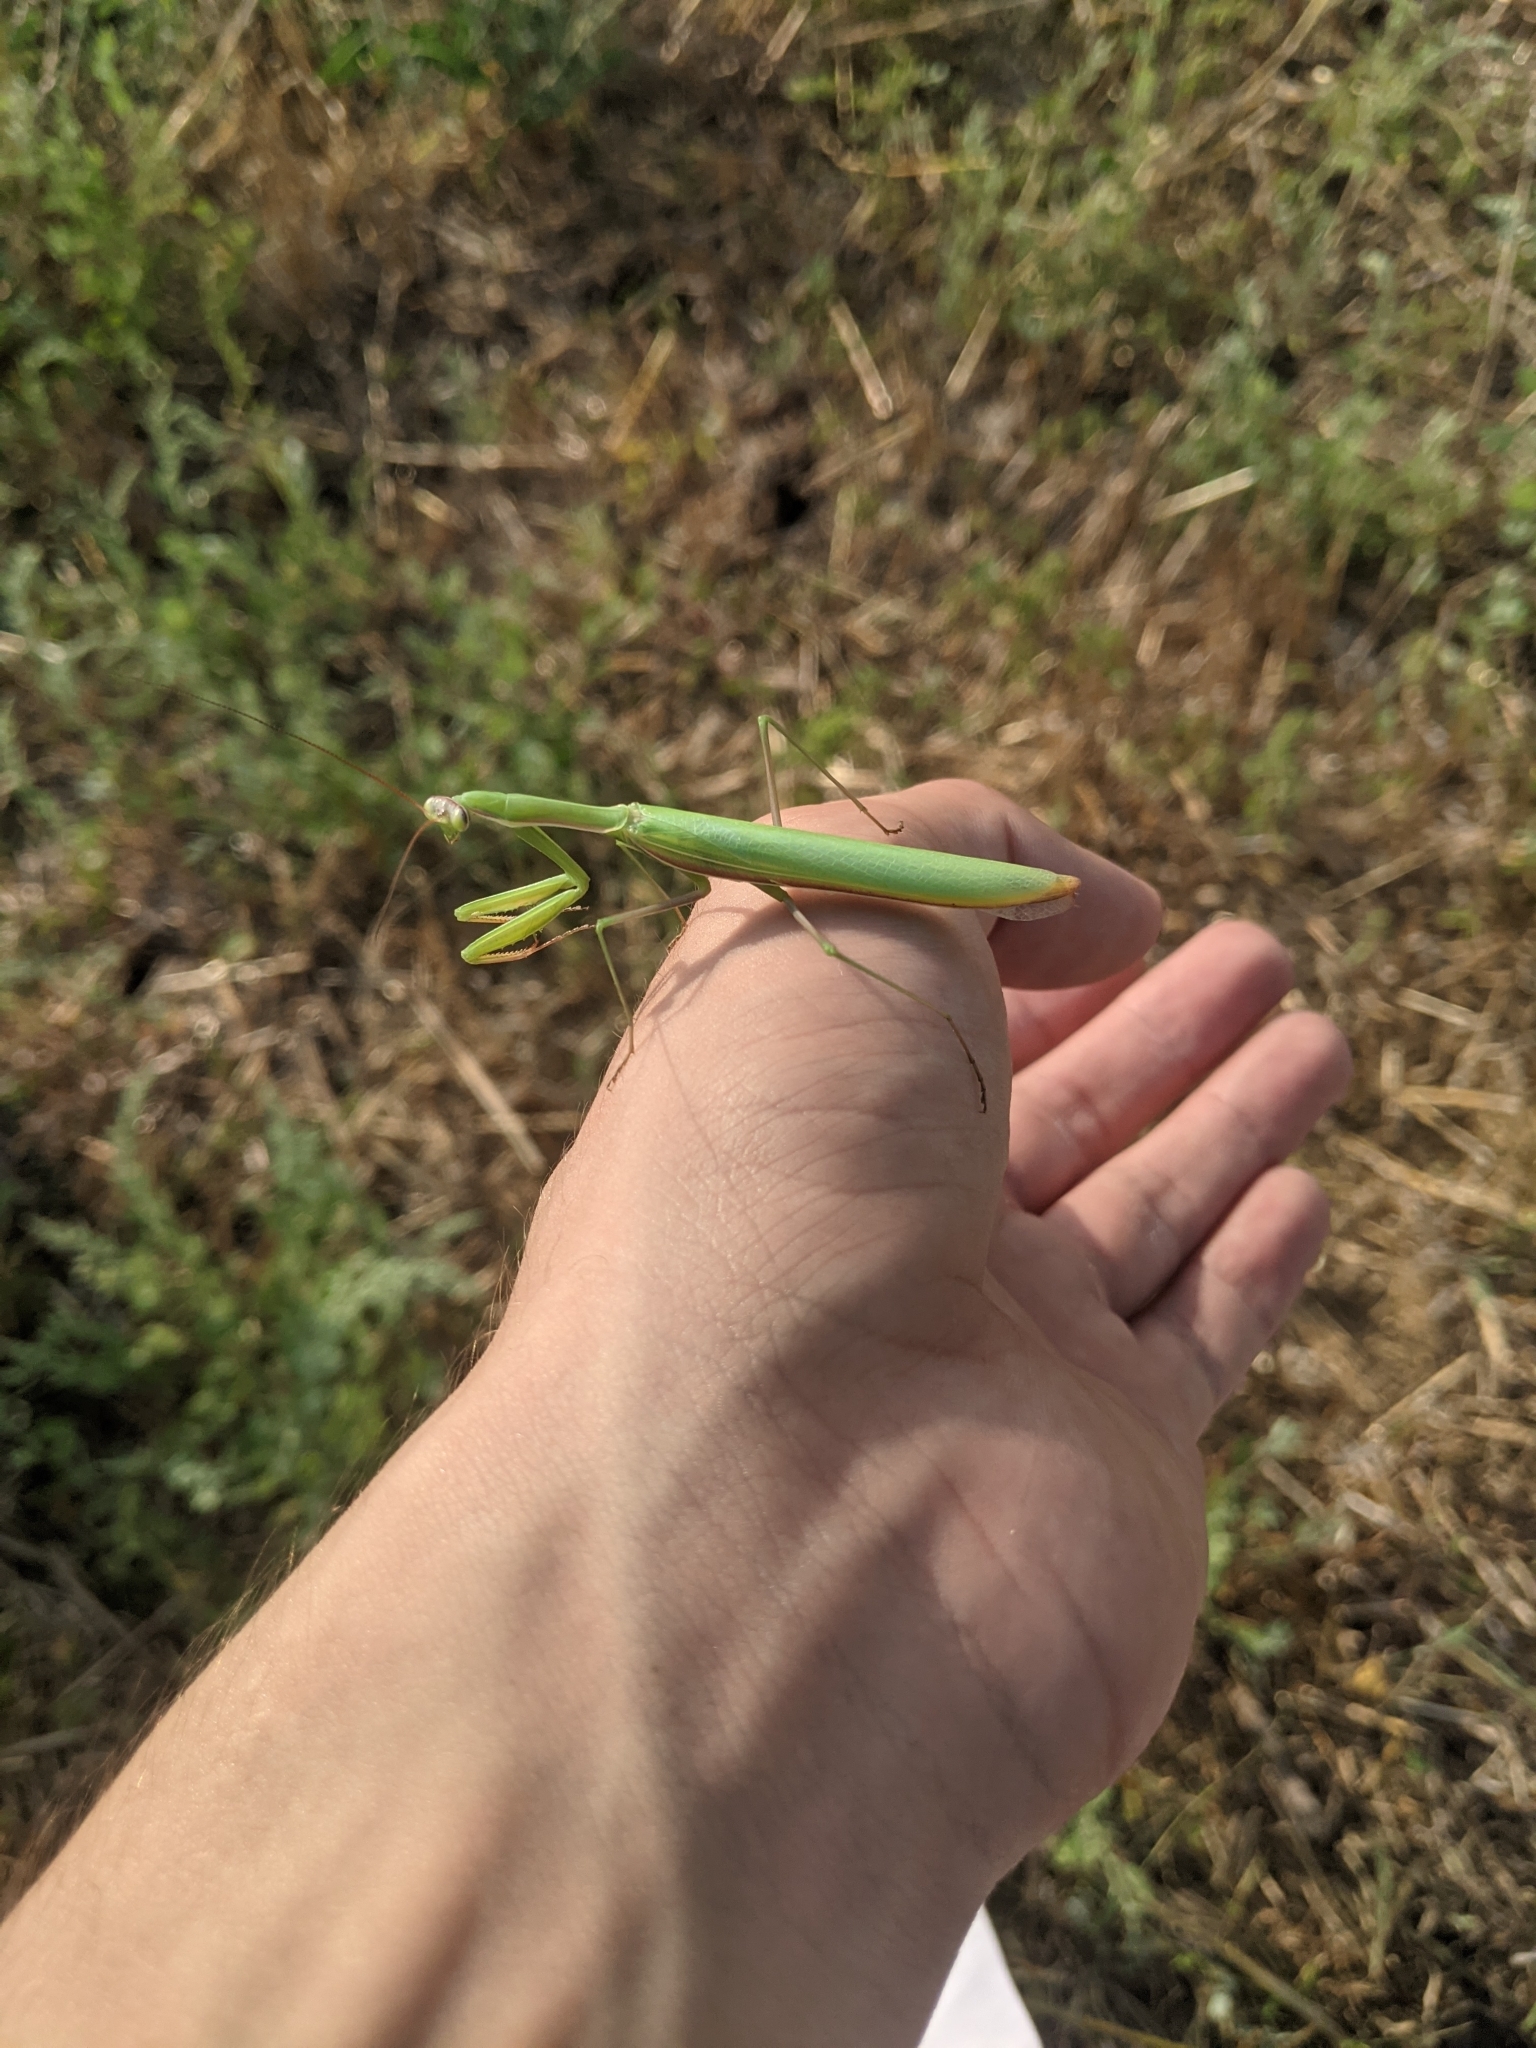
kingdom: Animalia
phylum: Arthropoda
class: Insecta
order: Mantodea
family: Mantidae
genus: Mantis
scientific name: Mantis religiosa
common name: Praying mantis
